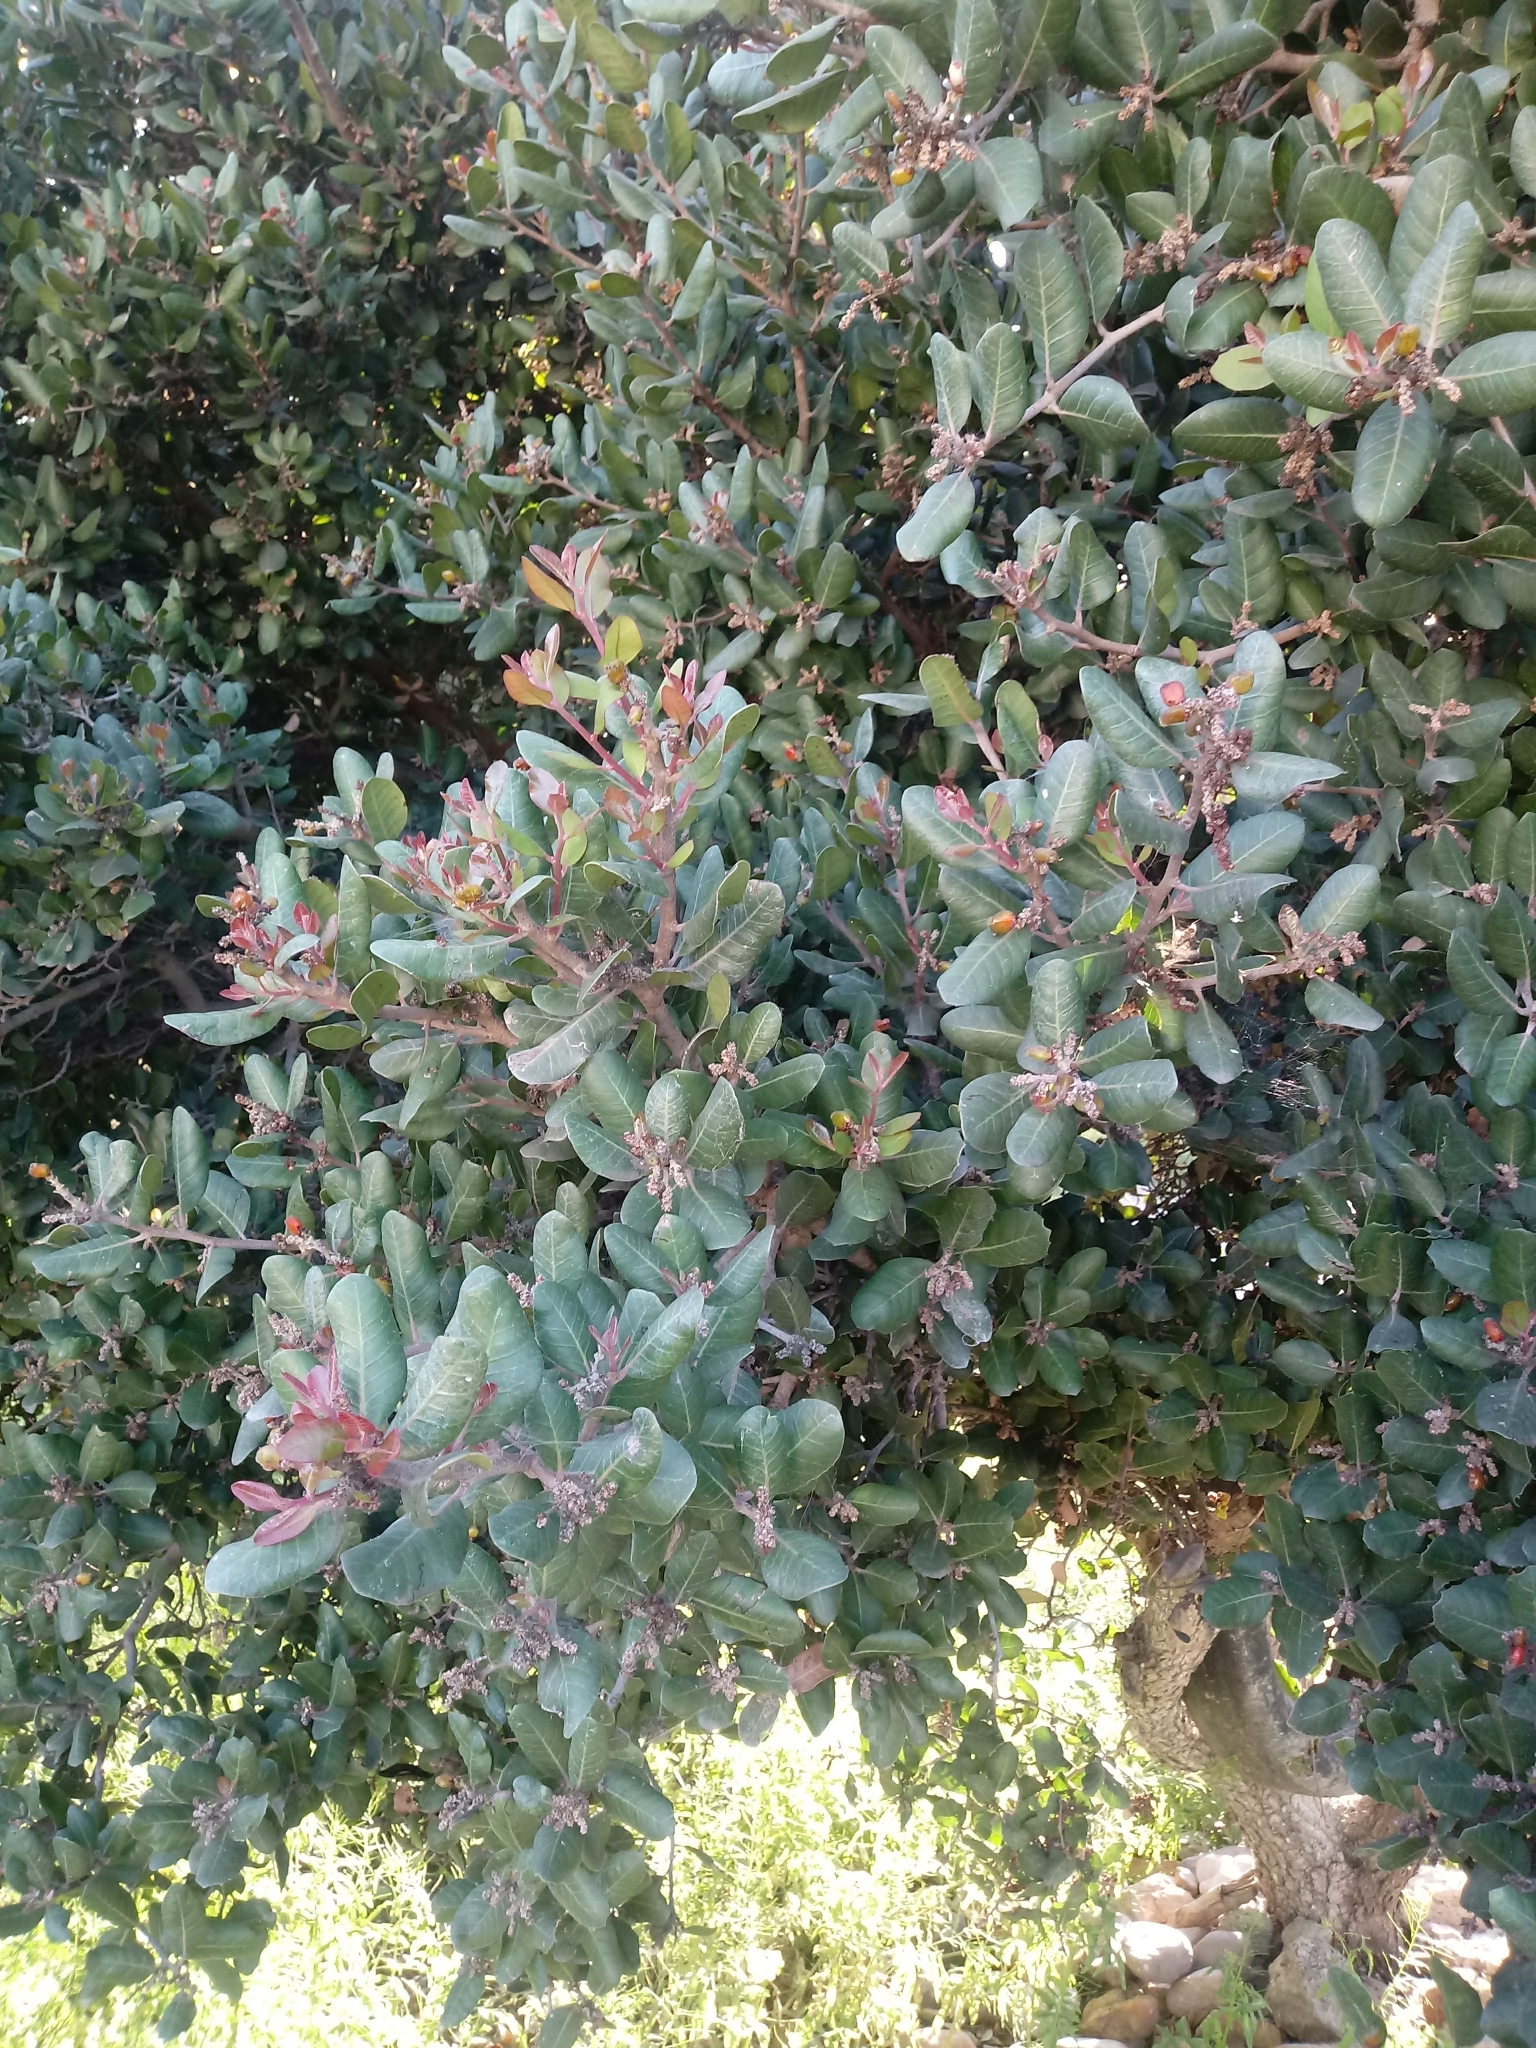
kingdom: Plantae
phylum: Tracheophyta
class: Magnoliopsida
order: Sapindales
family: Anacardiaceae
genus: Rhus
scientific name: Rhus integrifolia
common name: Lemonade sumac
